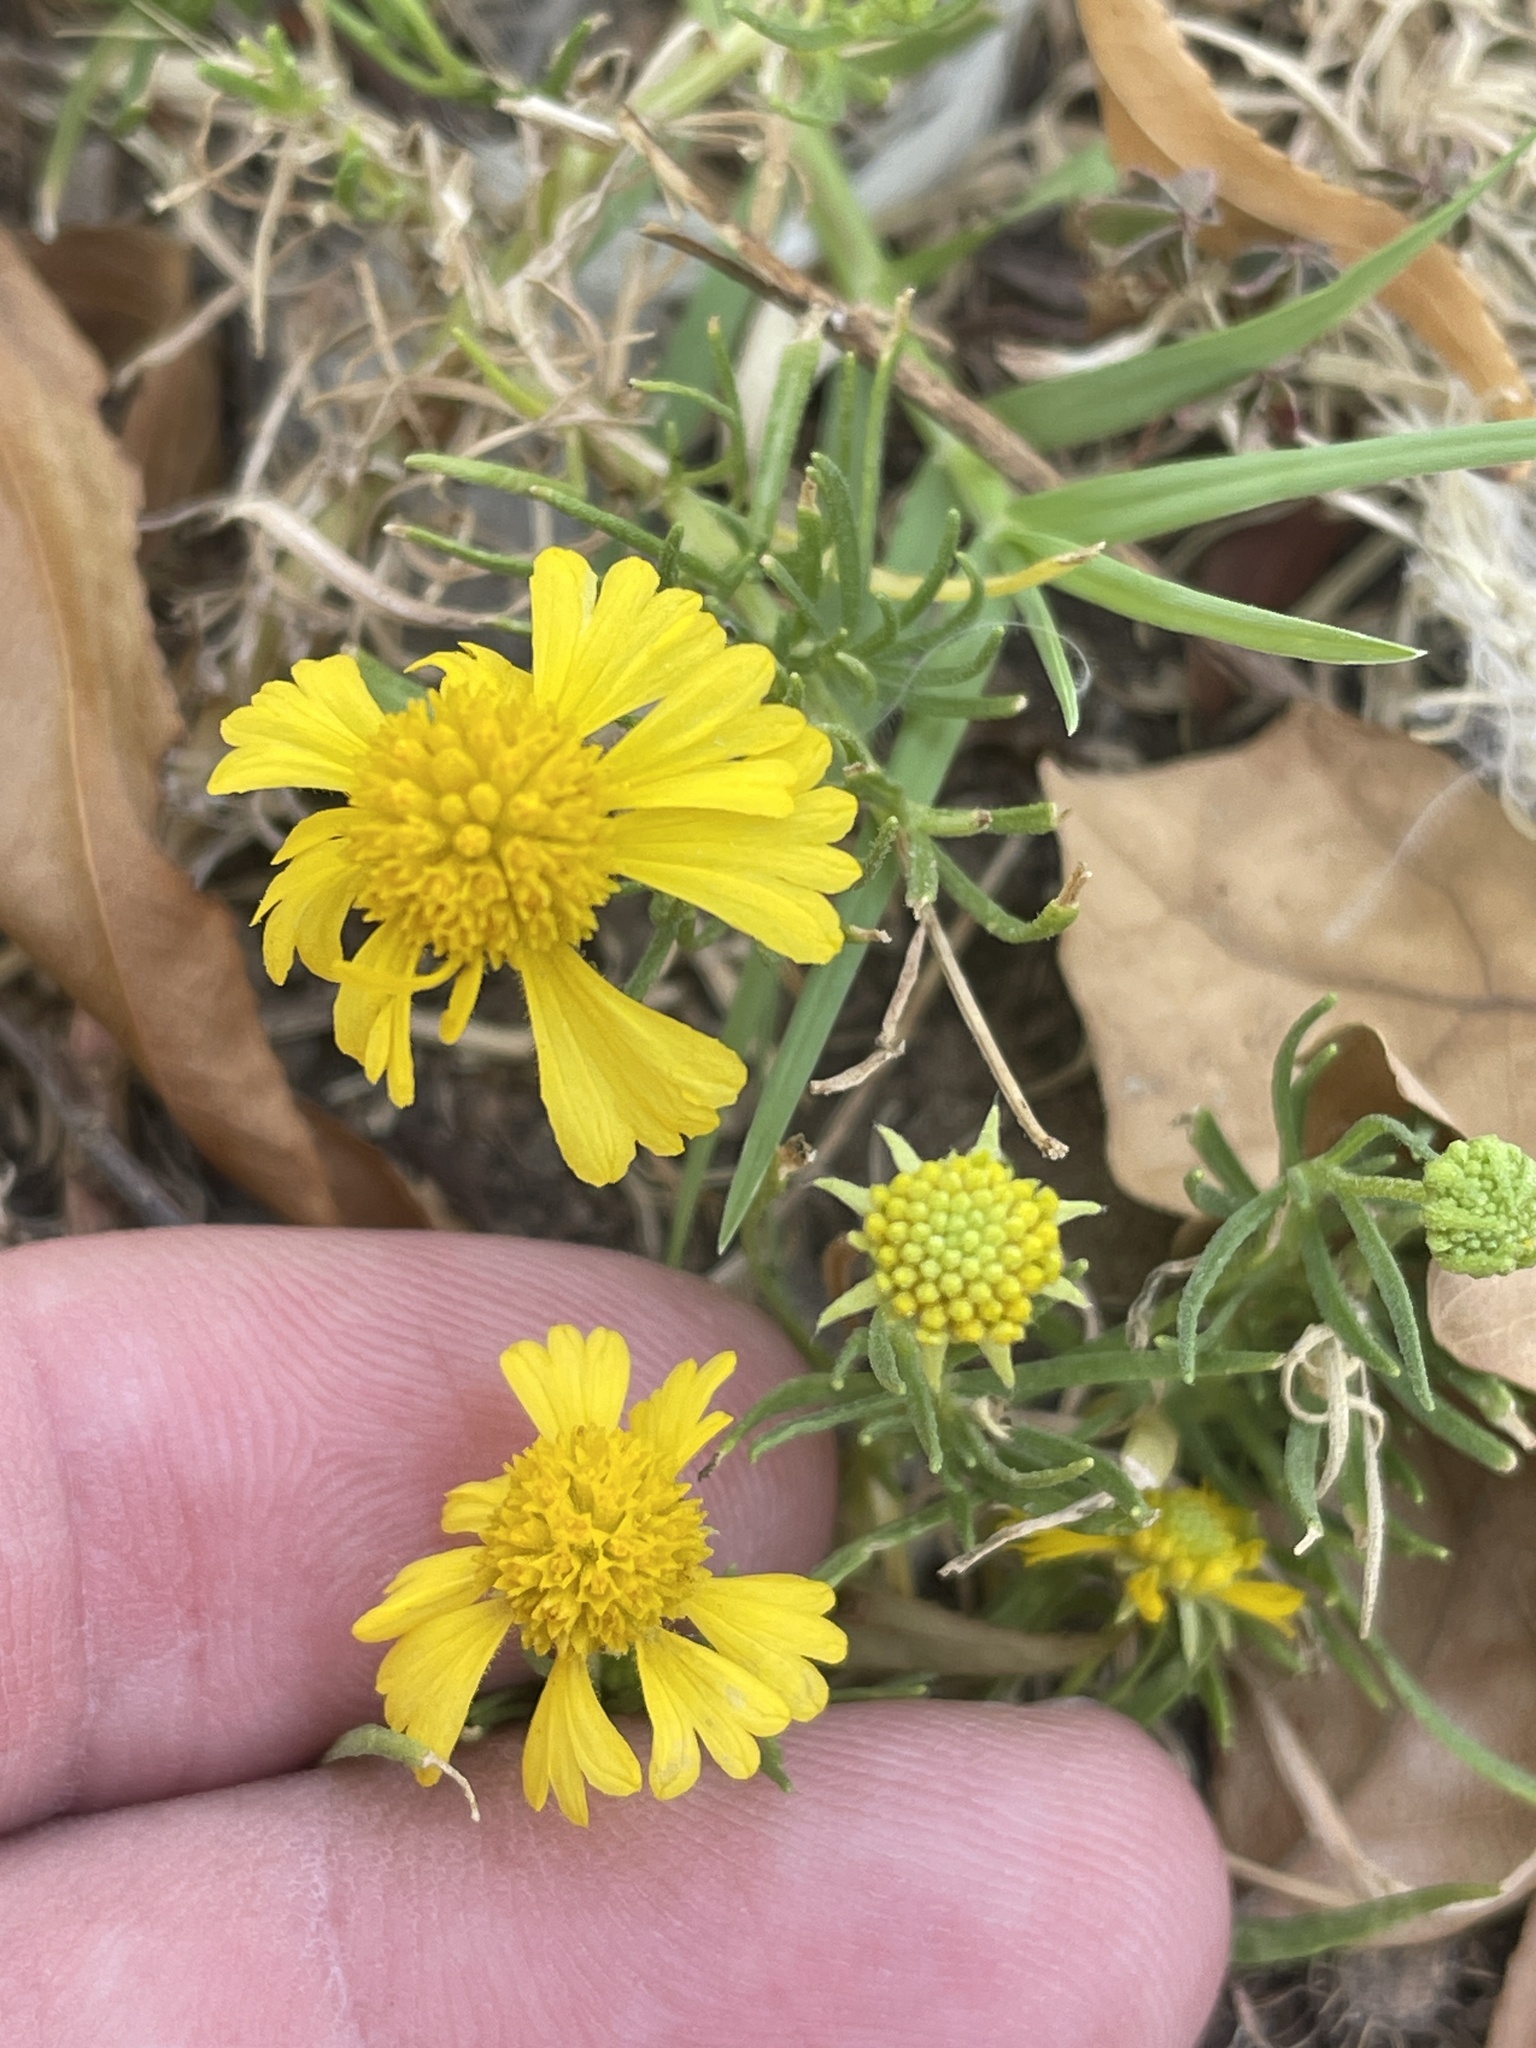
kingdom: Plantae
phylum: Tracheophyta
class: Magnoliopsida
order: Asterales
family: Asteraceae
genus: Helenium
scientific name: Helenium amarum
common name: Bitter sneezeweed
